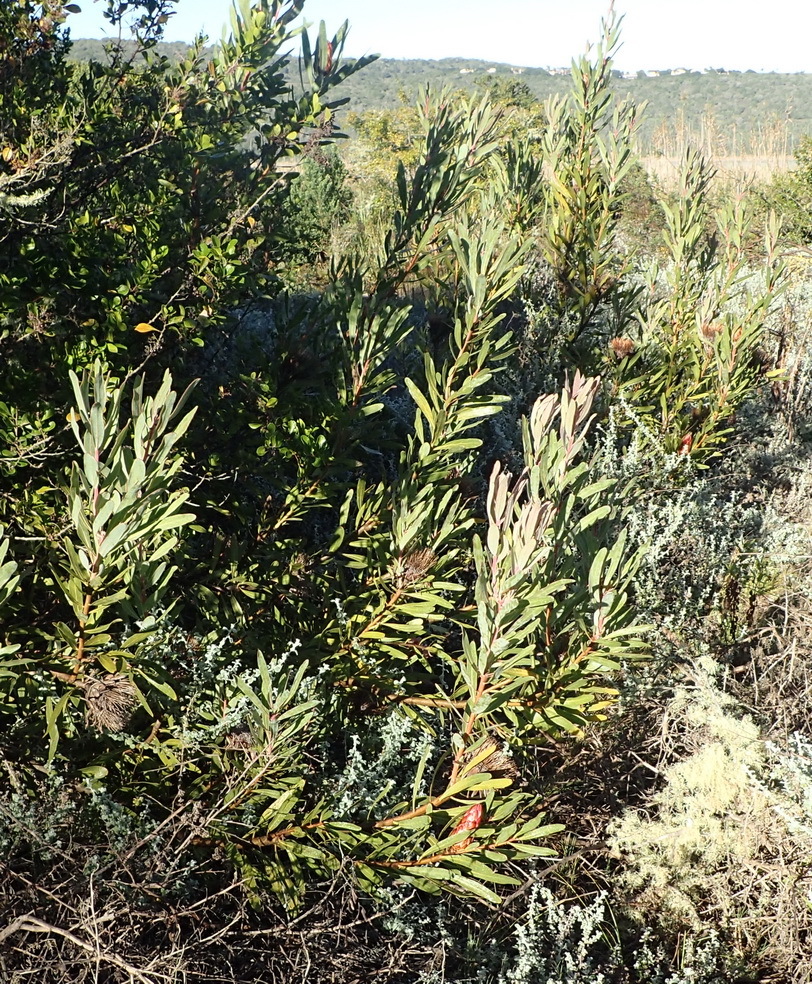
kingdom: Plantae
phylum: Tracheophyta
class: Magnoliopsida
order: Proteales
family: Proteaceae
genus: Protea
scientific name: Protea susannae
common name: Foetid-leaf sugarbush
